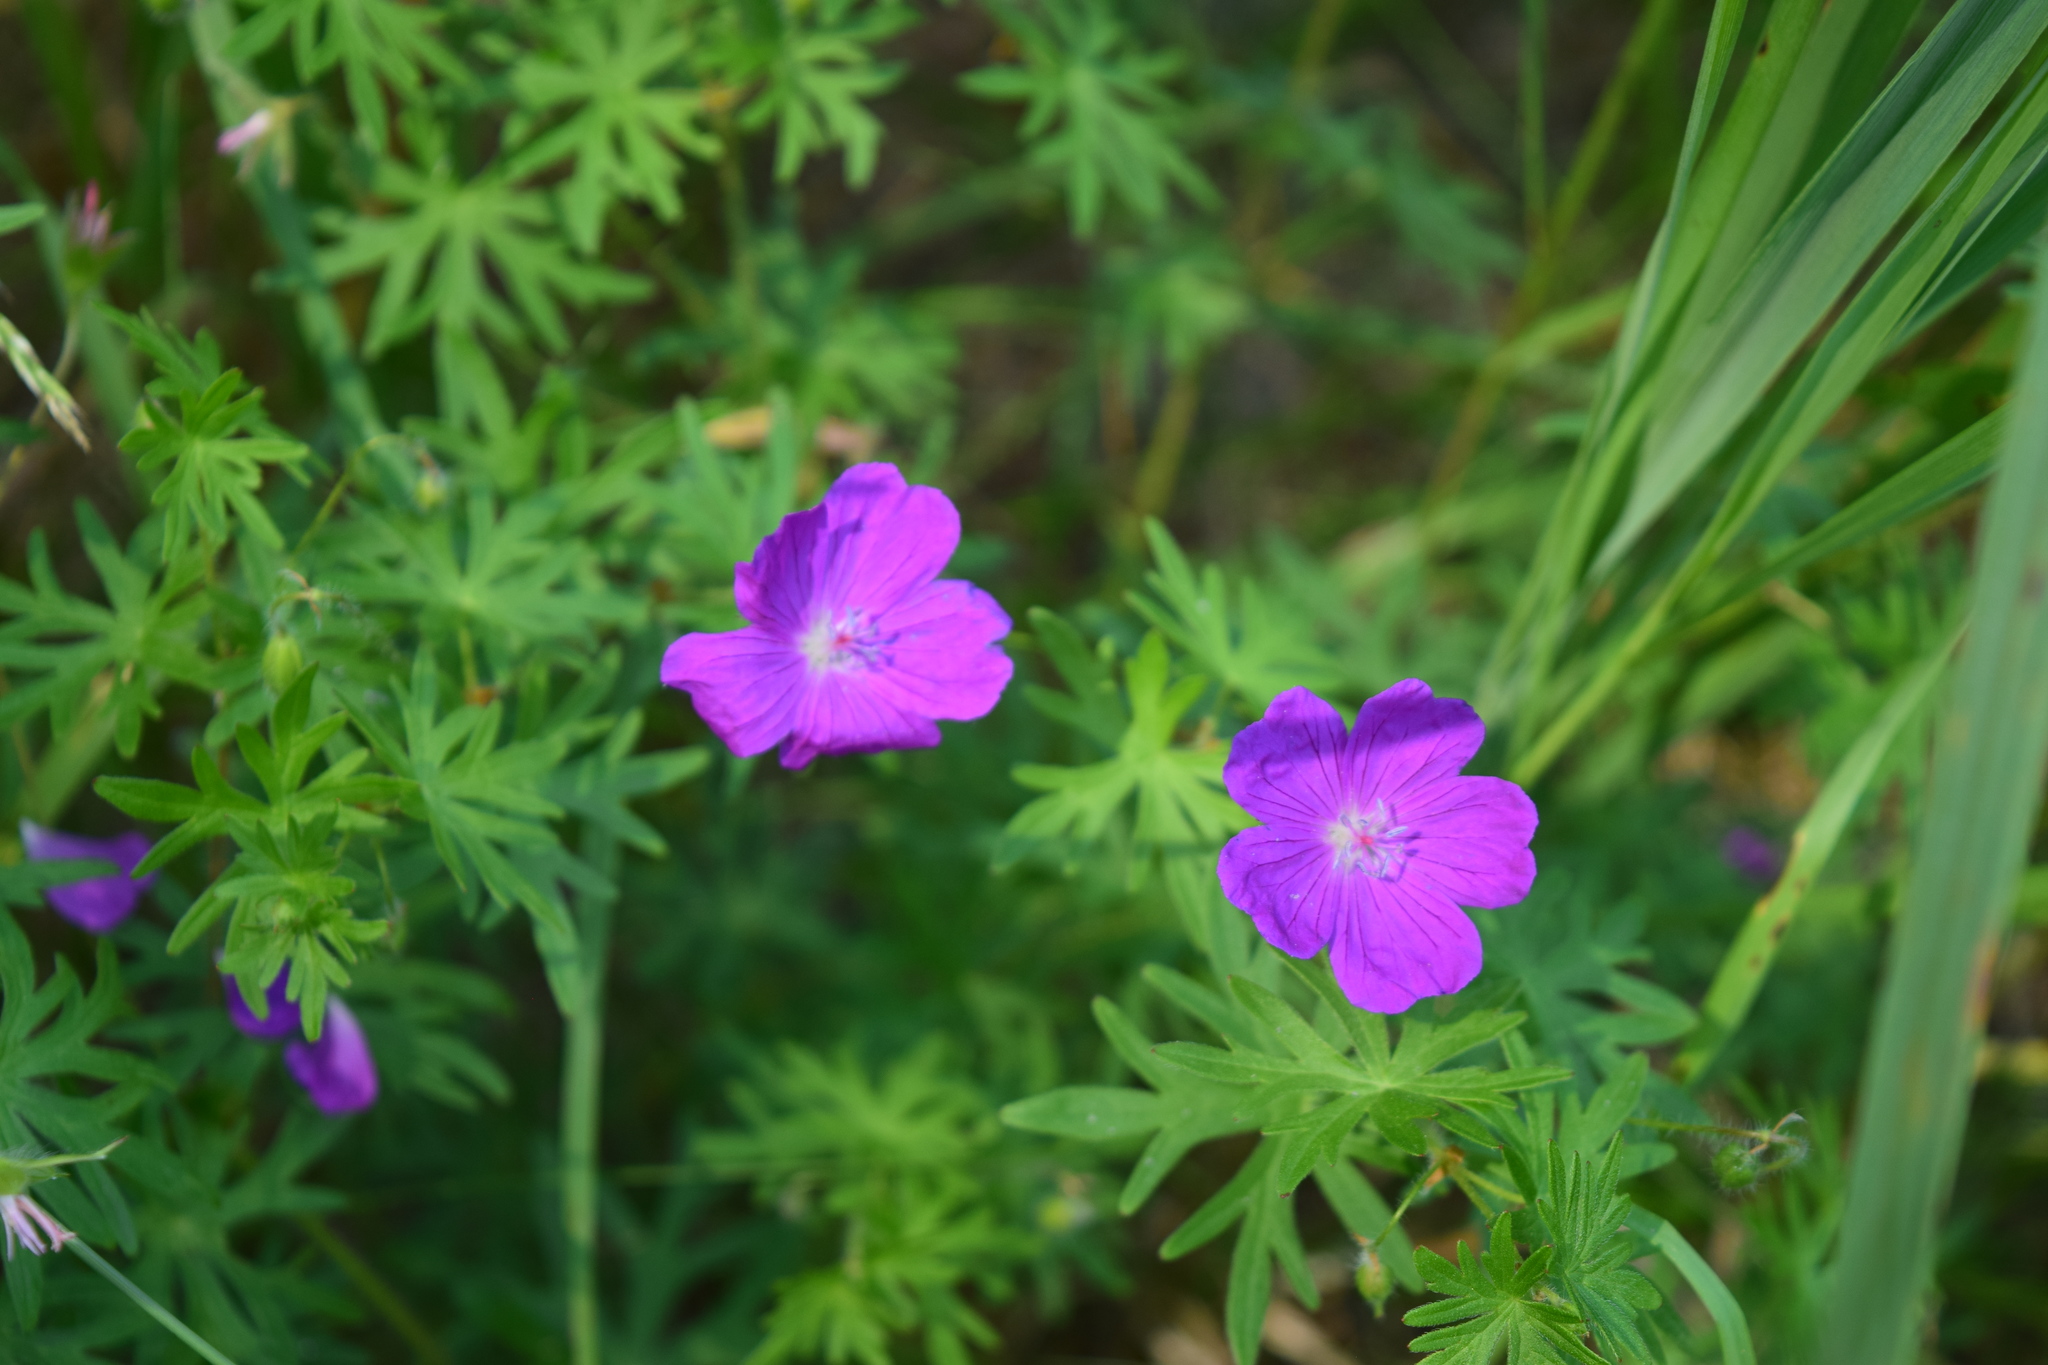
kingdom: Plantae
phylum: Tracheophyta
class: Magnoliopsida
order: Geraniales
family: Geraniaceae
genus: Geranium
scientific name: Geranium sanguineum
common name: Bloody crane's-bill
